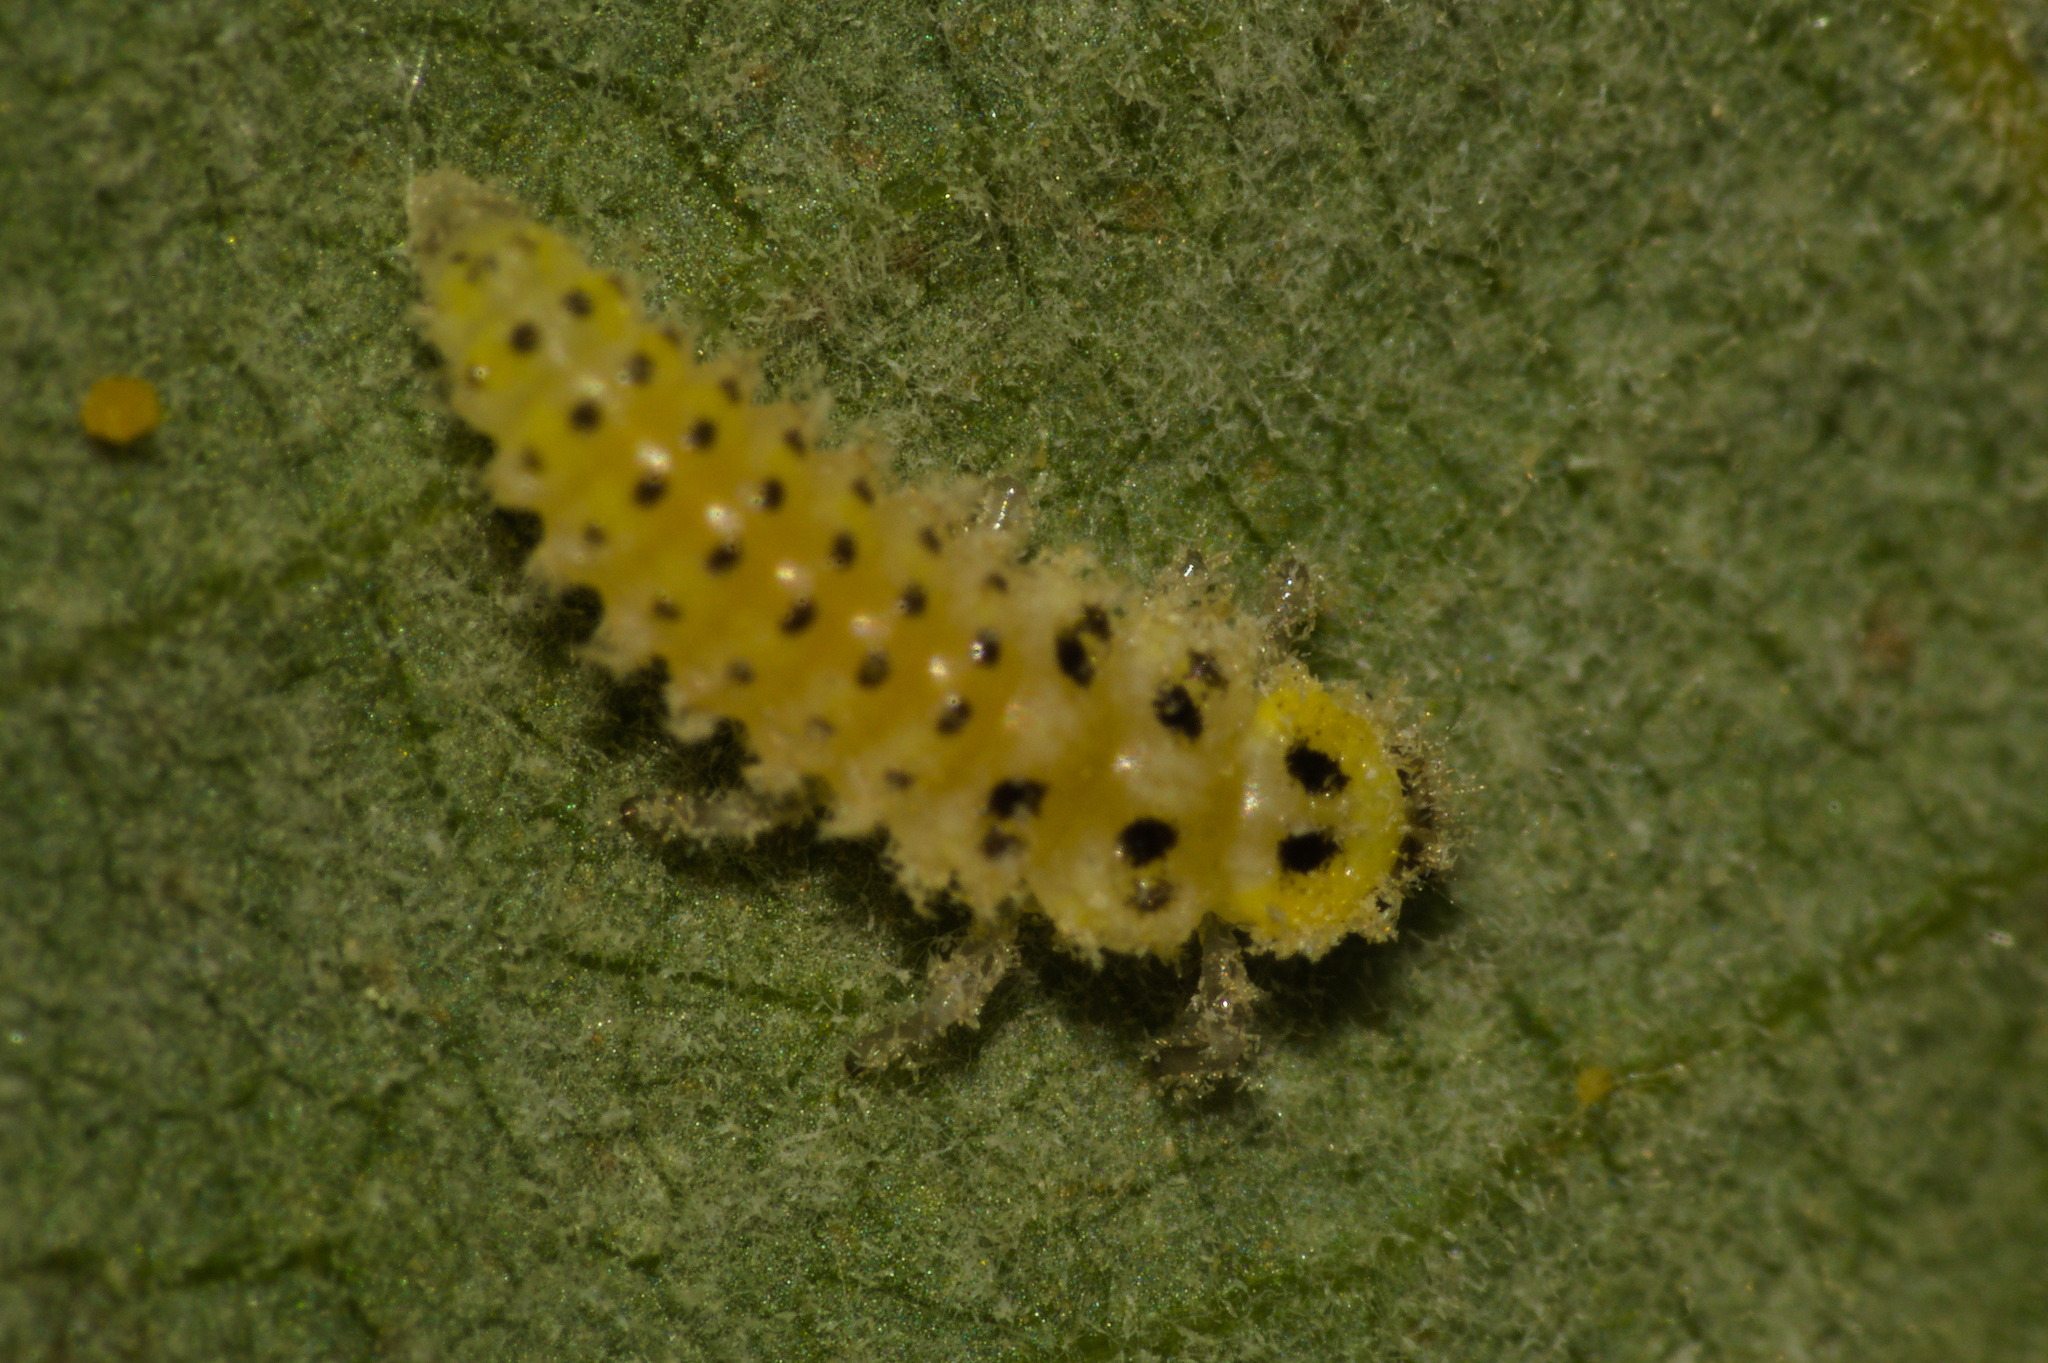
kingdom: Animalia
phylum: Arthropoda
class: Insecta
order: Coleoptera
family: Coccinellidae
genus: Vibidia
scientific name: Vibidia duodecimguttata
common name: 12-spot ladybird
